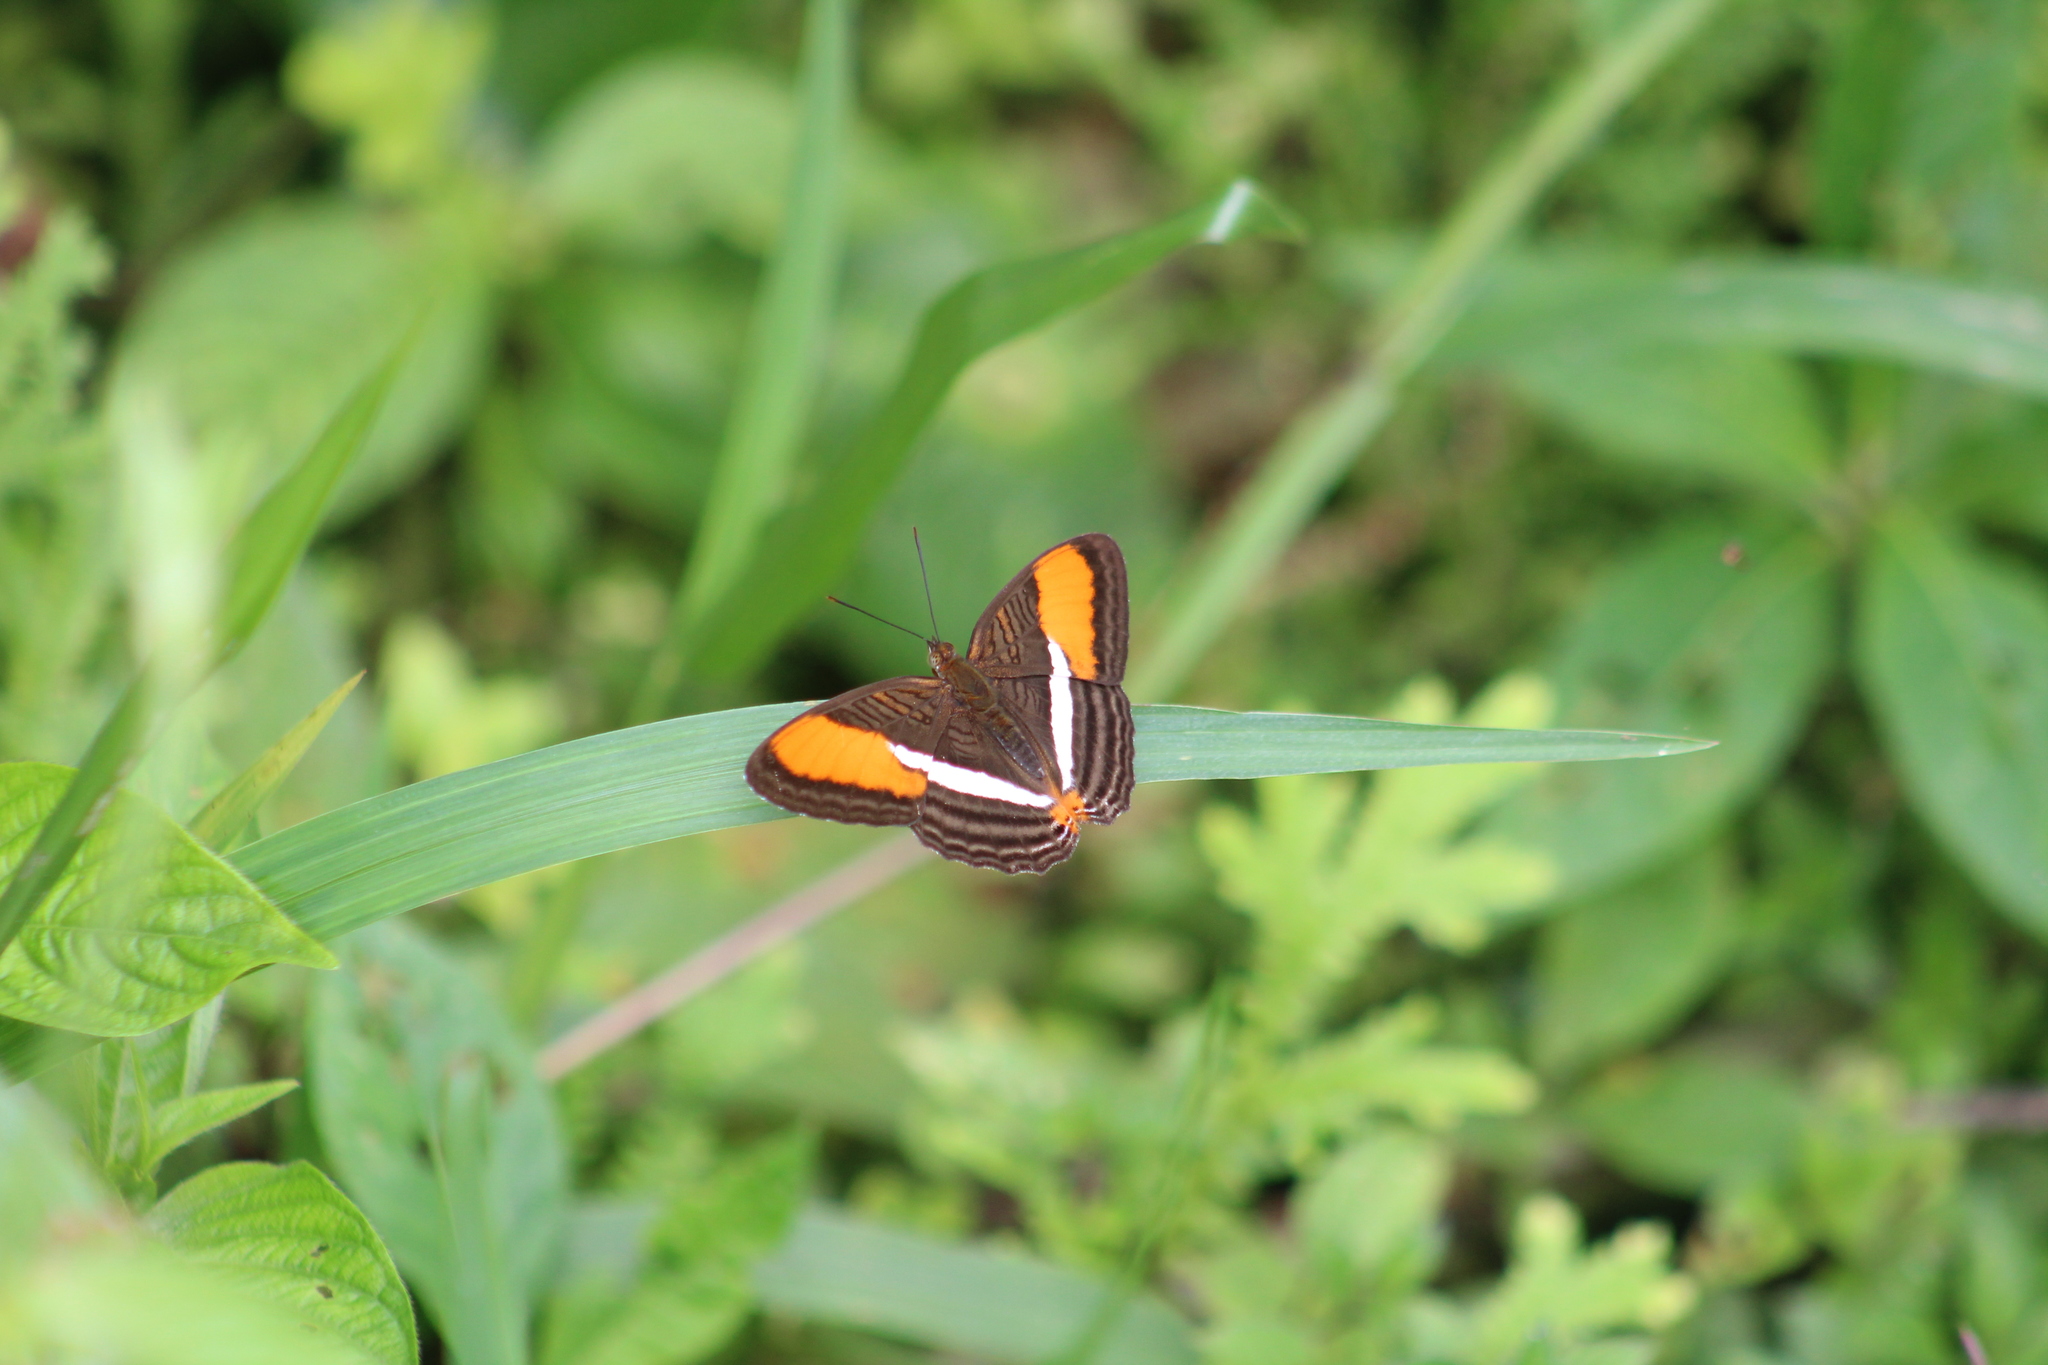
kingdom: Animalia
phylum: Arthropoda
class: Insecta
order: Lepidoptera
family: Nymphalidae
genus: Limenitis
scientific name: Limenitis cytherea
